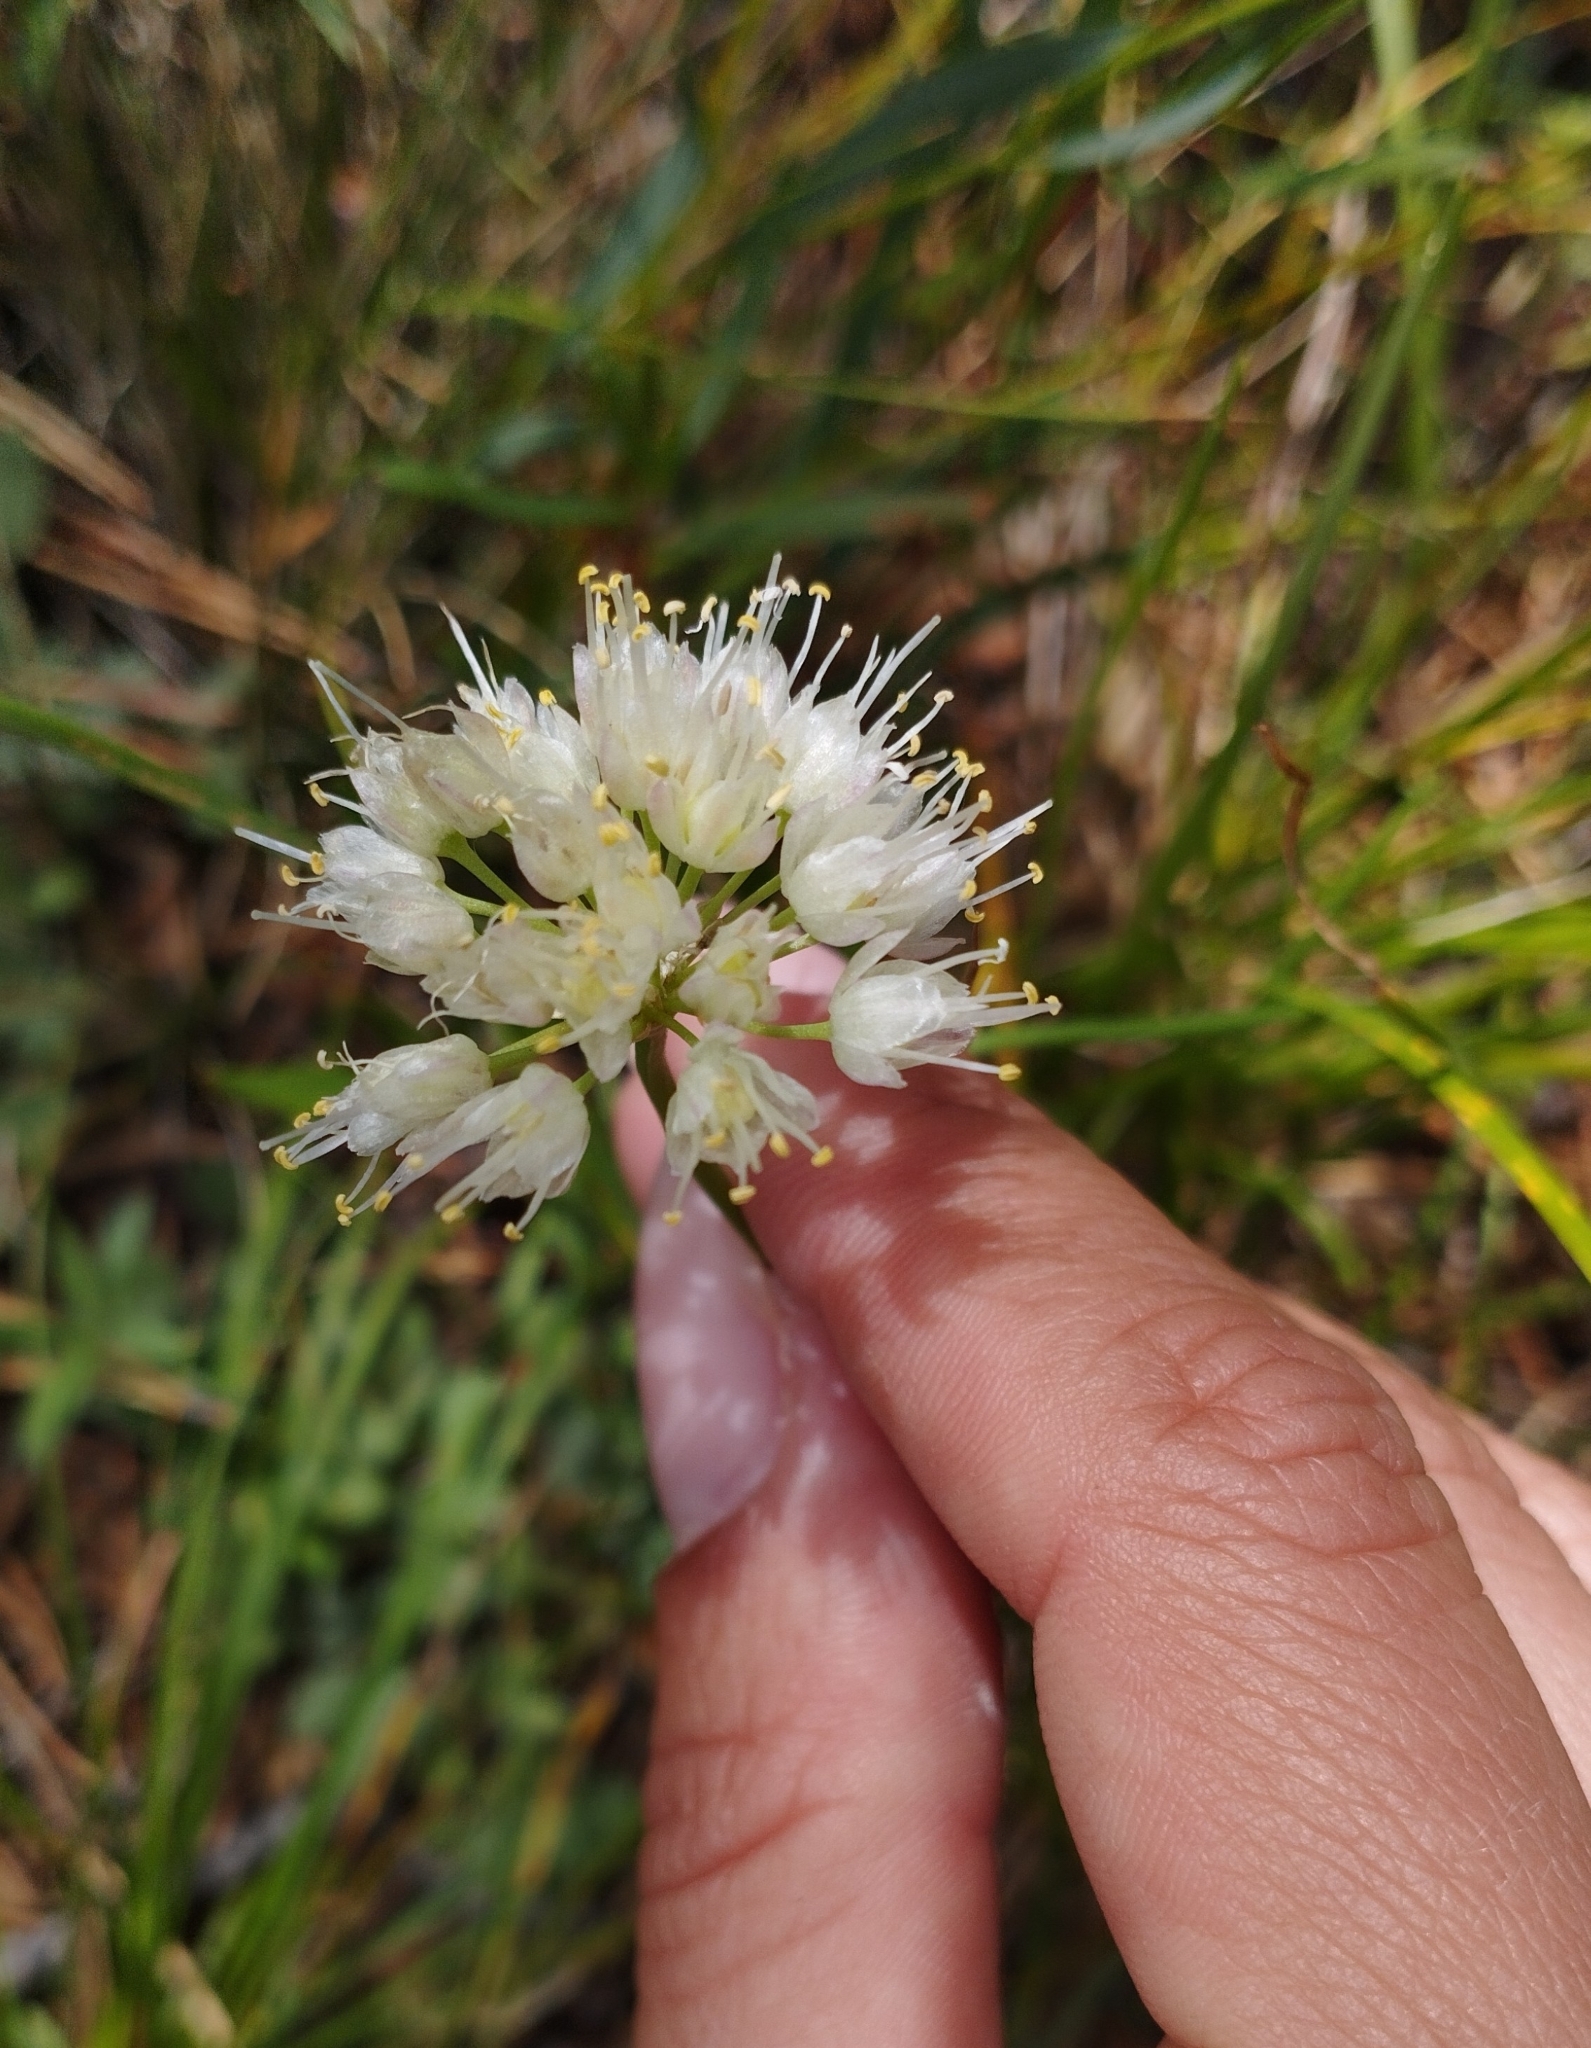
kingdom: Plantae
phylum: Tracheophyta
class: Liliopsida
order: Asparagales
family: Amaryllidaceae
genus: Allium
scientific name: Allium stellerianum
